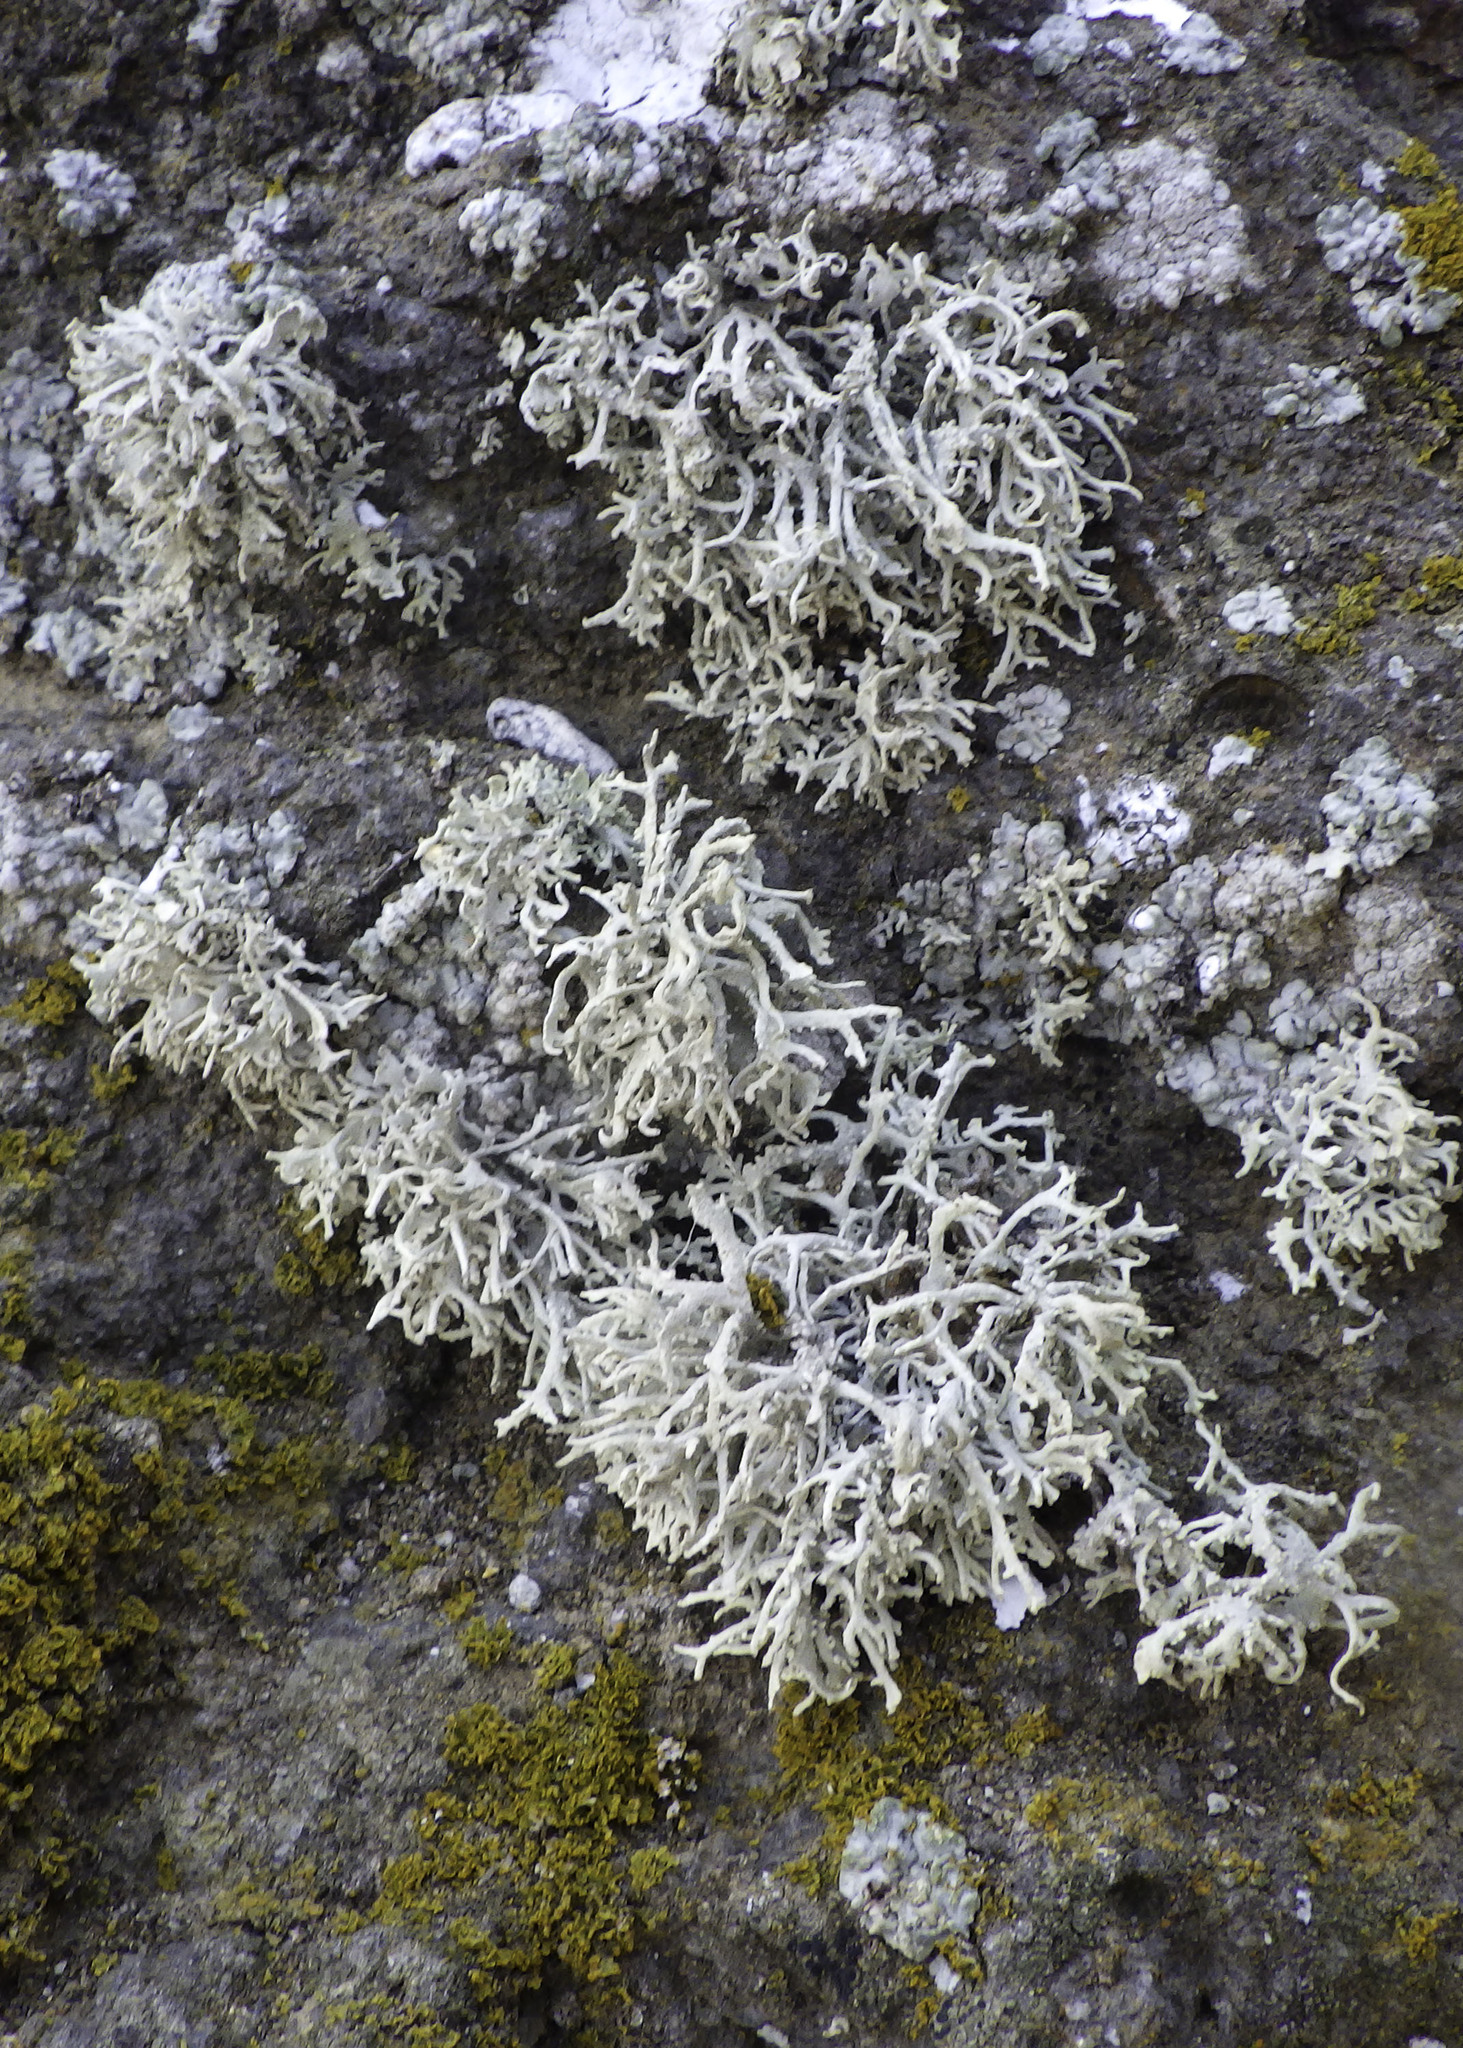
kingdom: Fungi
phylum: Ascomycota
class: Arthoniomycetes
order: Arthoniales
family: Roccellaceae
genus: Dendrographa
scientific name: Dendrographa leucophaea
